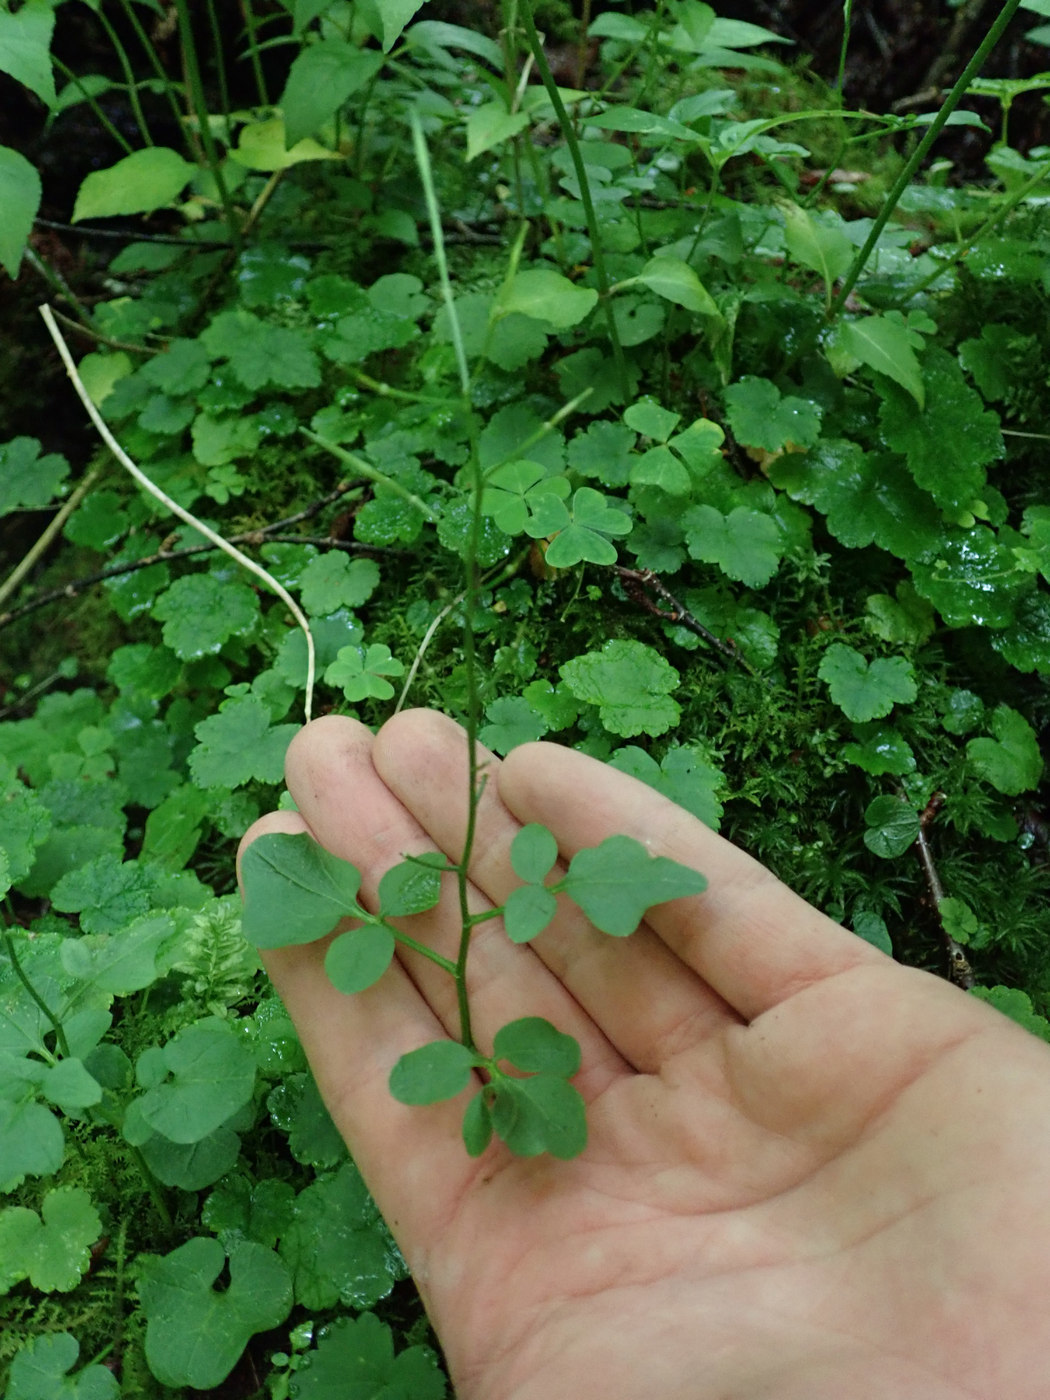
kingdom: Plantae
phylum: Tracheophyta
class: Magnoliopsida
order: Brassicales
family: Brassicaceae
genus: Cardamine
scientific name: Cardamine clematitis
